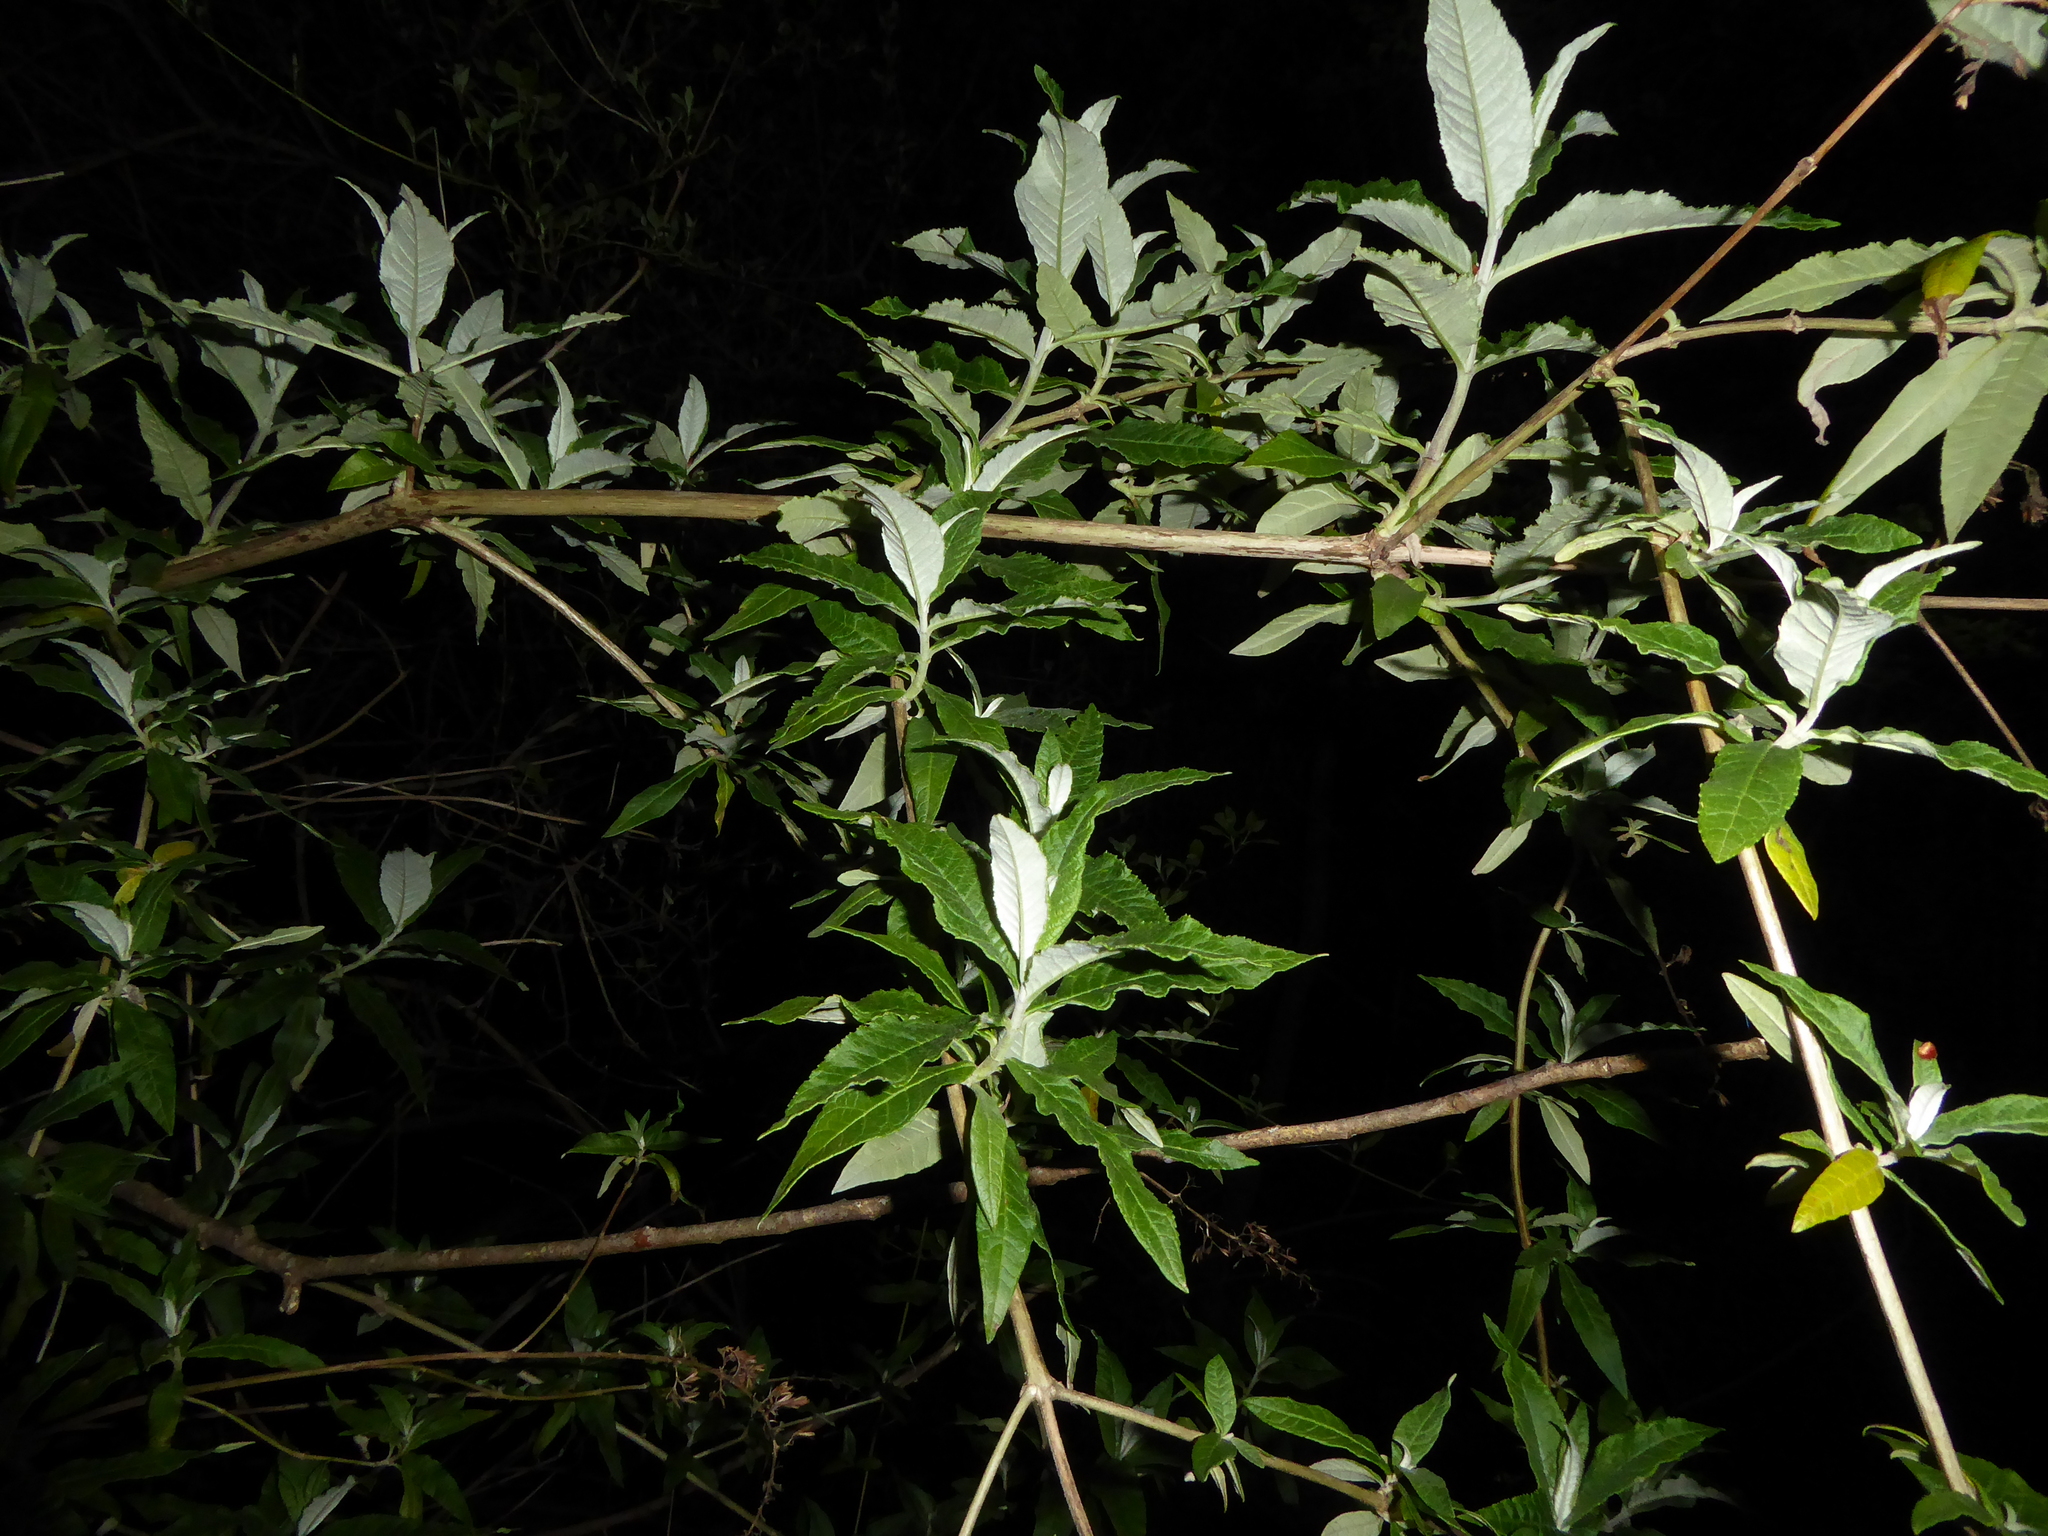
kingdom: Plantae
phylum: Tracheophyta
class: Magnoliopsida
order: Lamiales
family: Scrophulariaceae
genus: Buddleja
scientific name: Buddleja davidii
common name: Butterfly-bush
